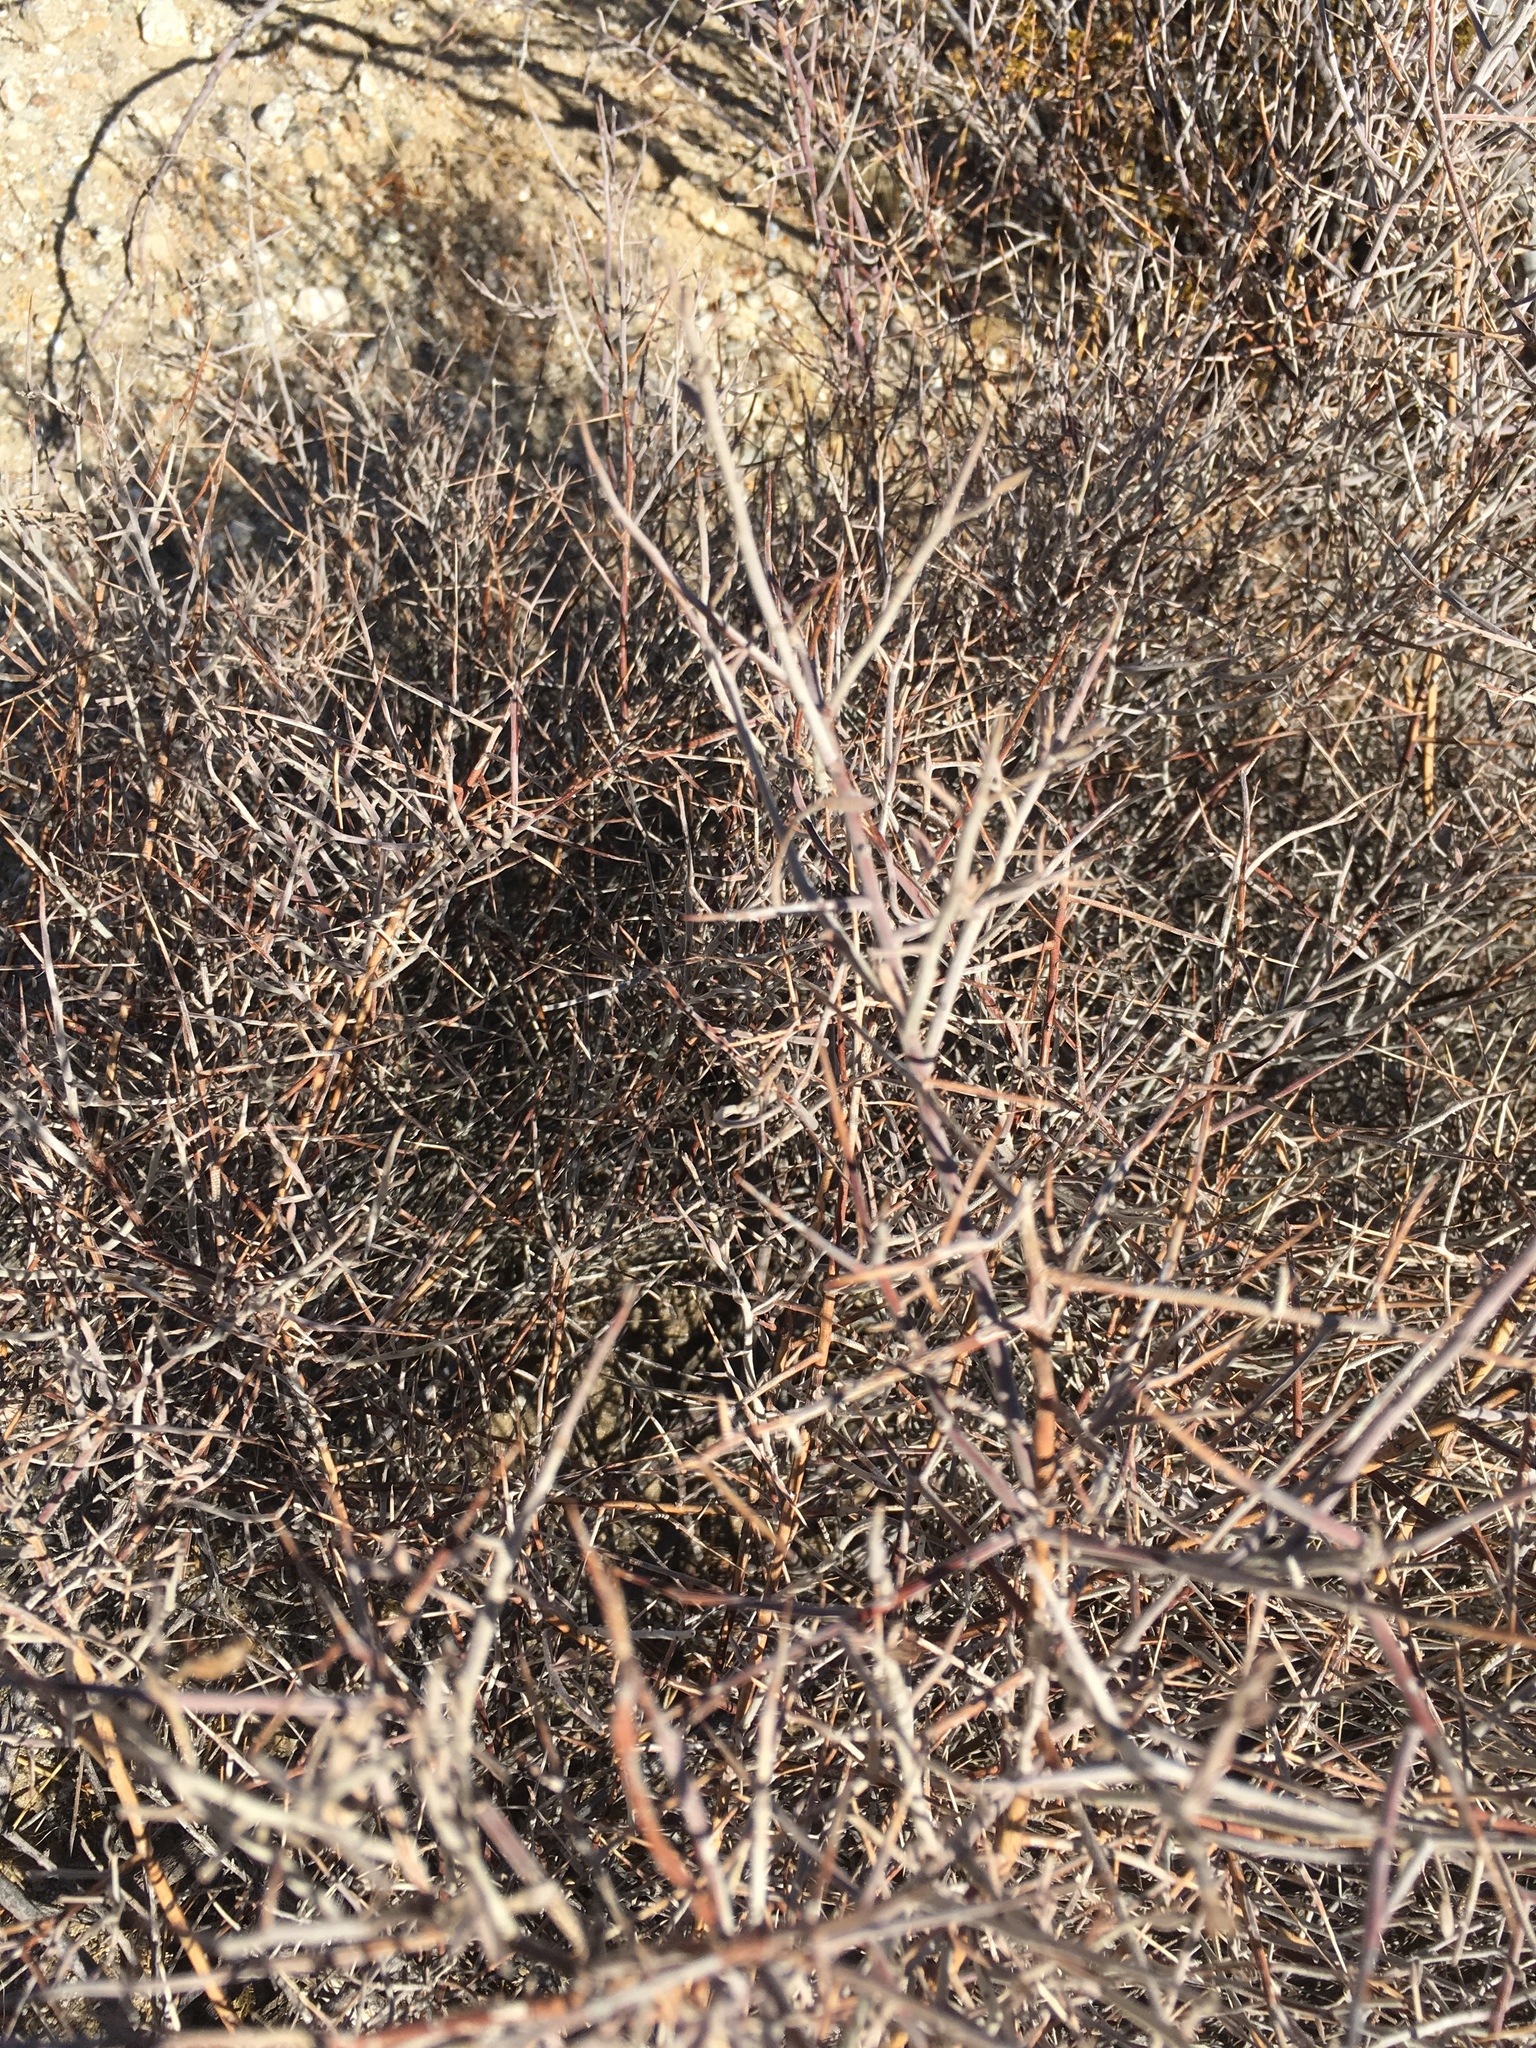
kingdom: Plantae
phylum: Tracheophyta
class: Magnoliopsida
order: Zygophyllales
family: Krameriaceae
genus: Krameria
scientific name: Krameria bicolor
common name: White ratany
